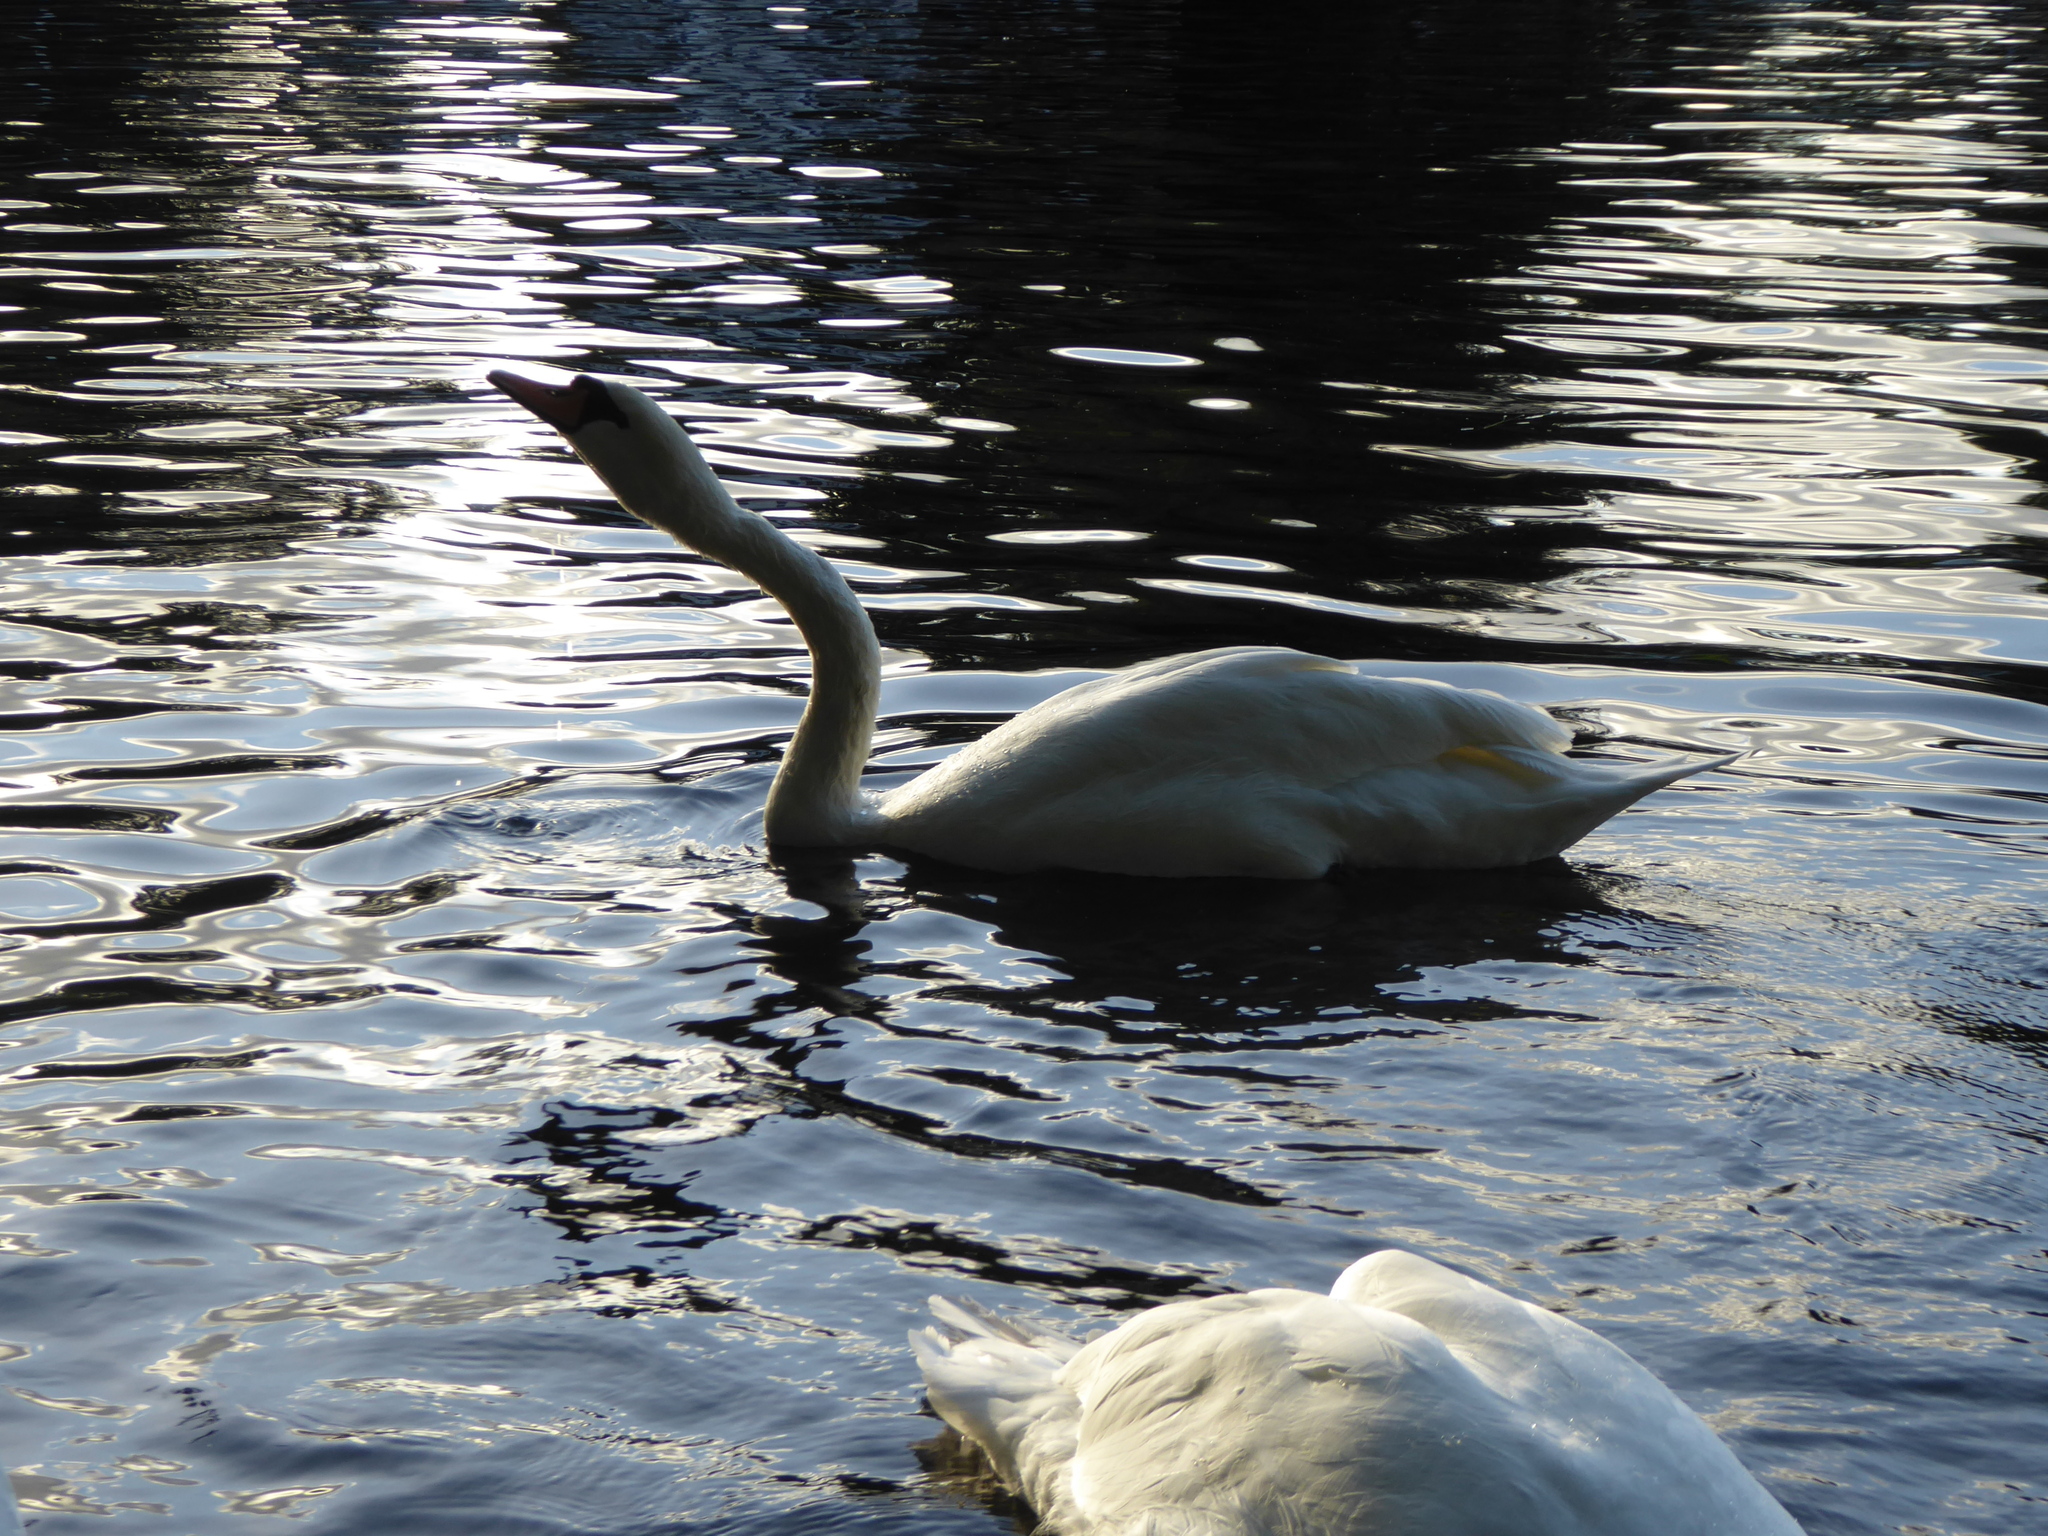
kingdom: Animalia
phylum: Chordata
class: Aves
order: Anseriformes
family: Anatidae
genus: Cygnus
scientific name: Cygnus olor
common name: Mute swan
